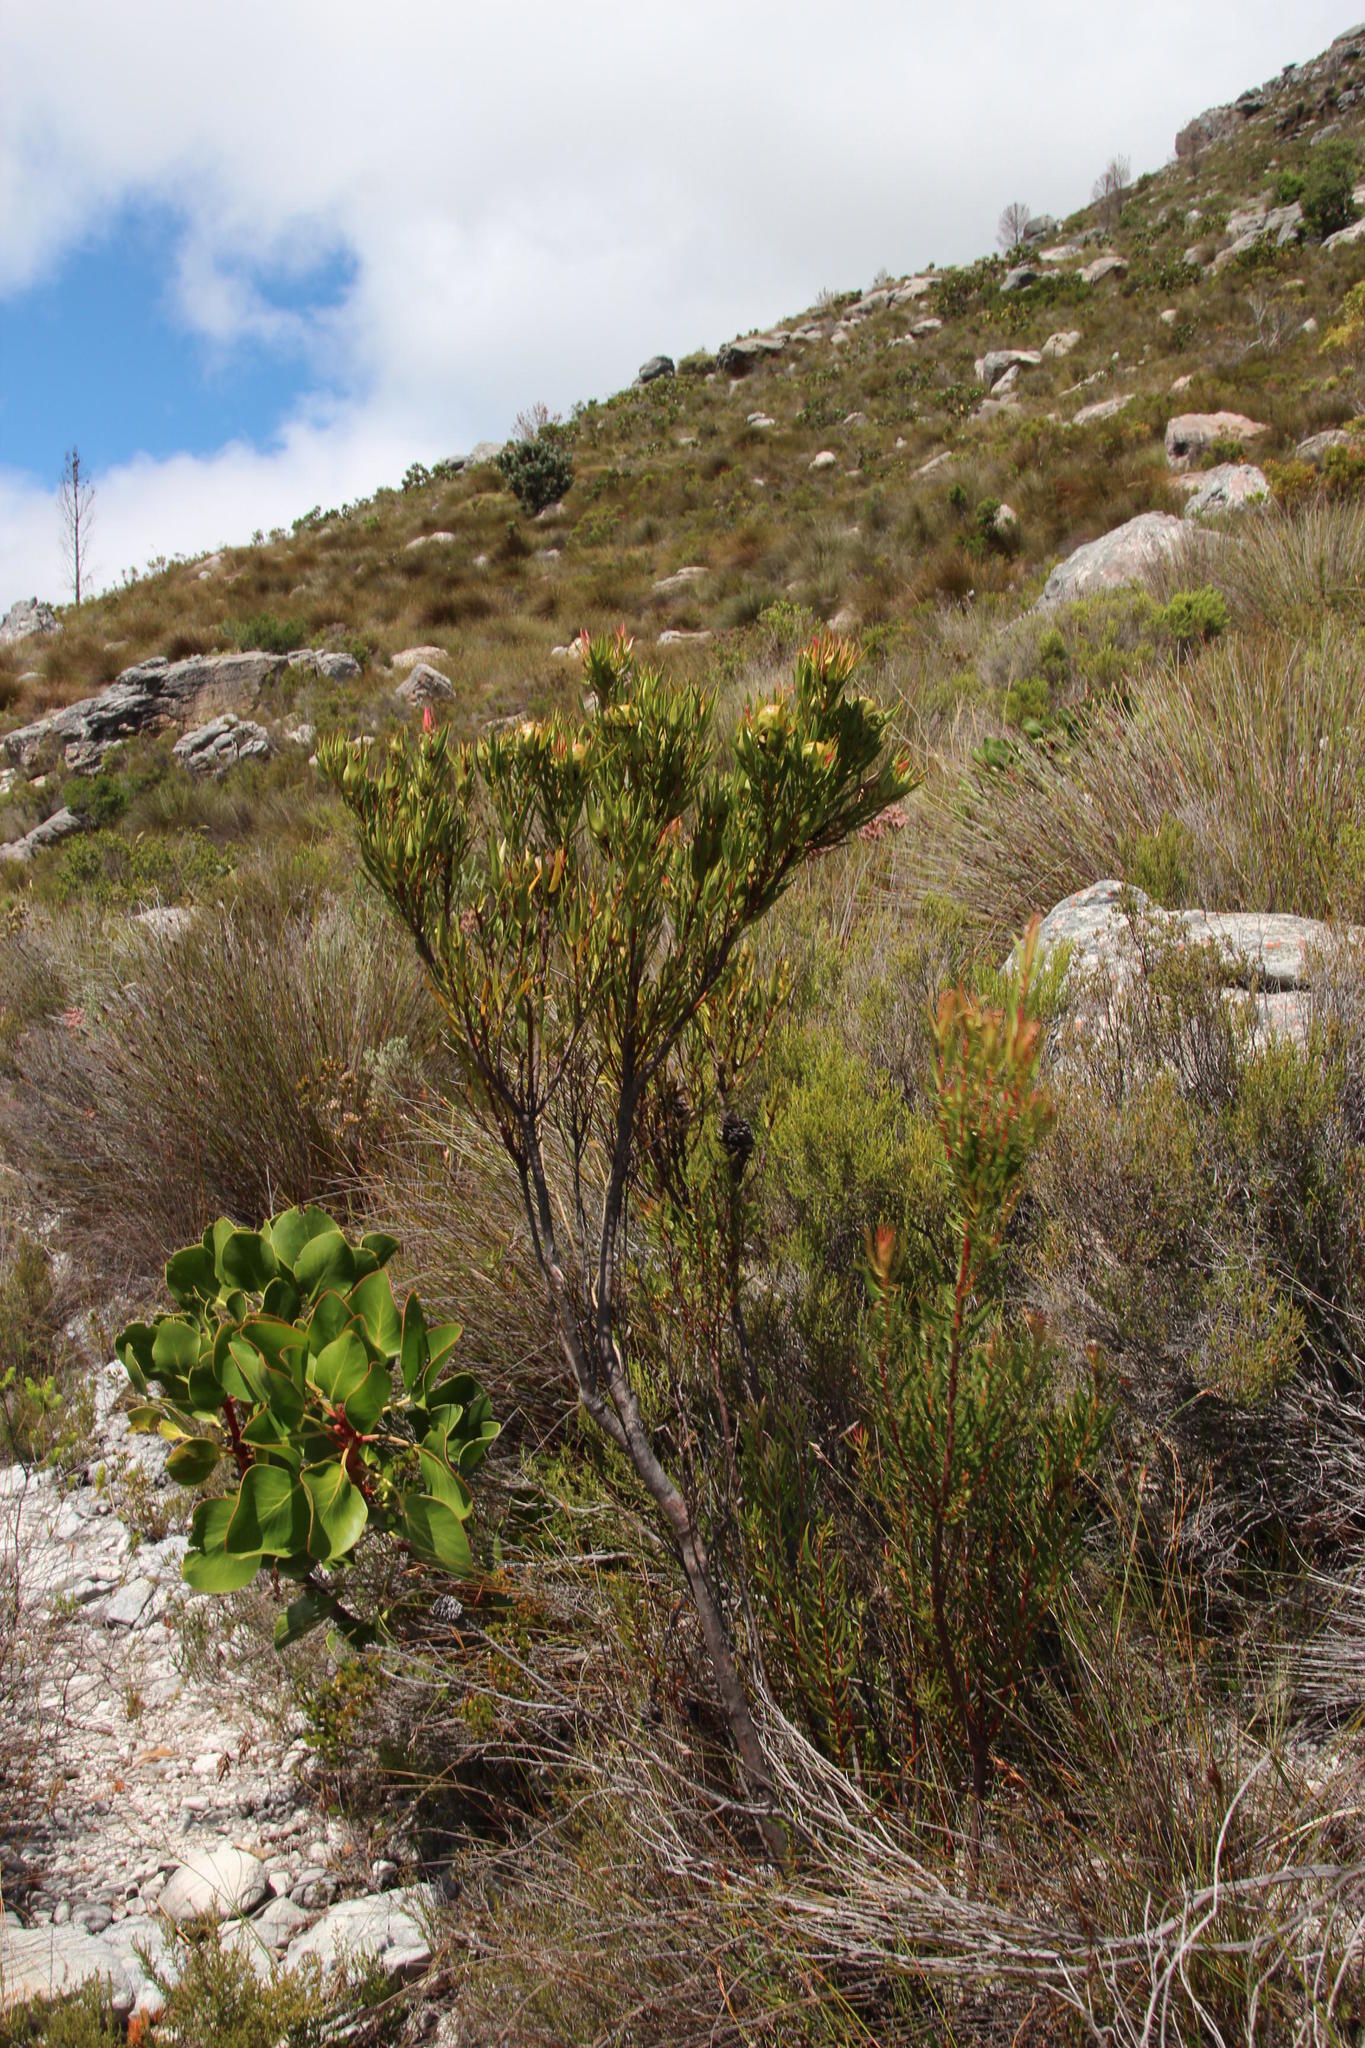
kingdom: Plantae
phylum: Tracheophyta
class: Magnoliopsida
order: Proteales
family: Proteaceae
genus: Leucadendron
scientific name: Leucadendron spissifolium
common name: Spear-leaf conebush
